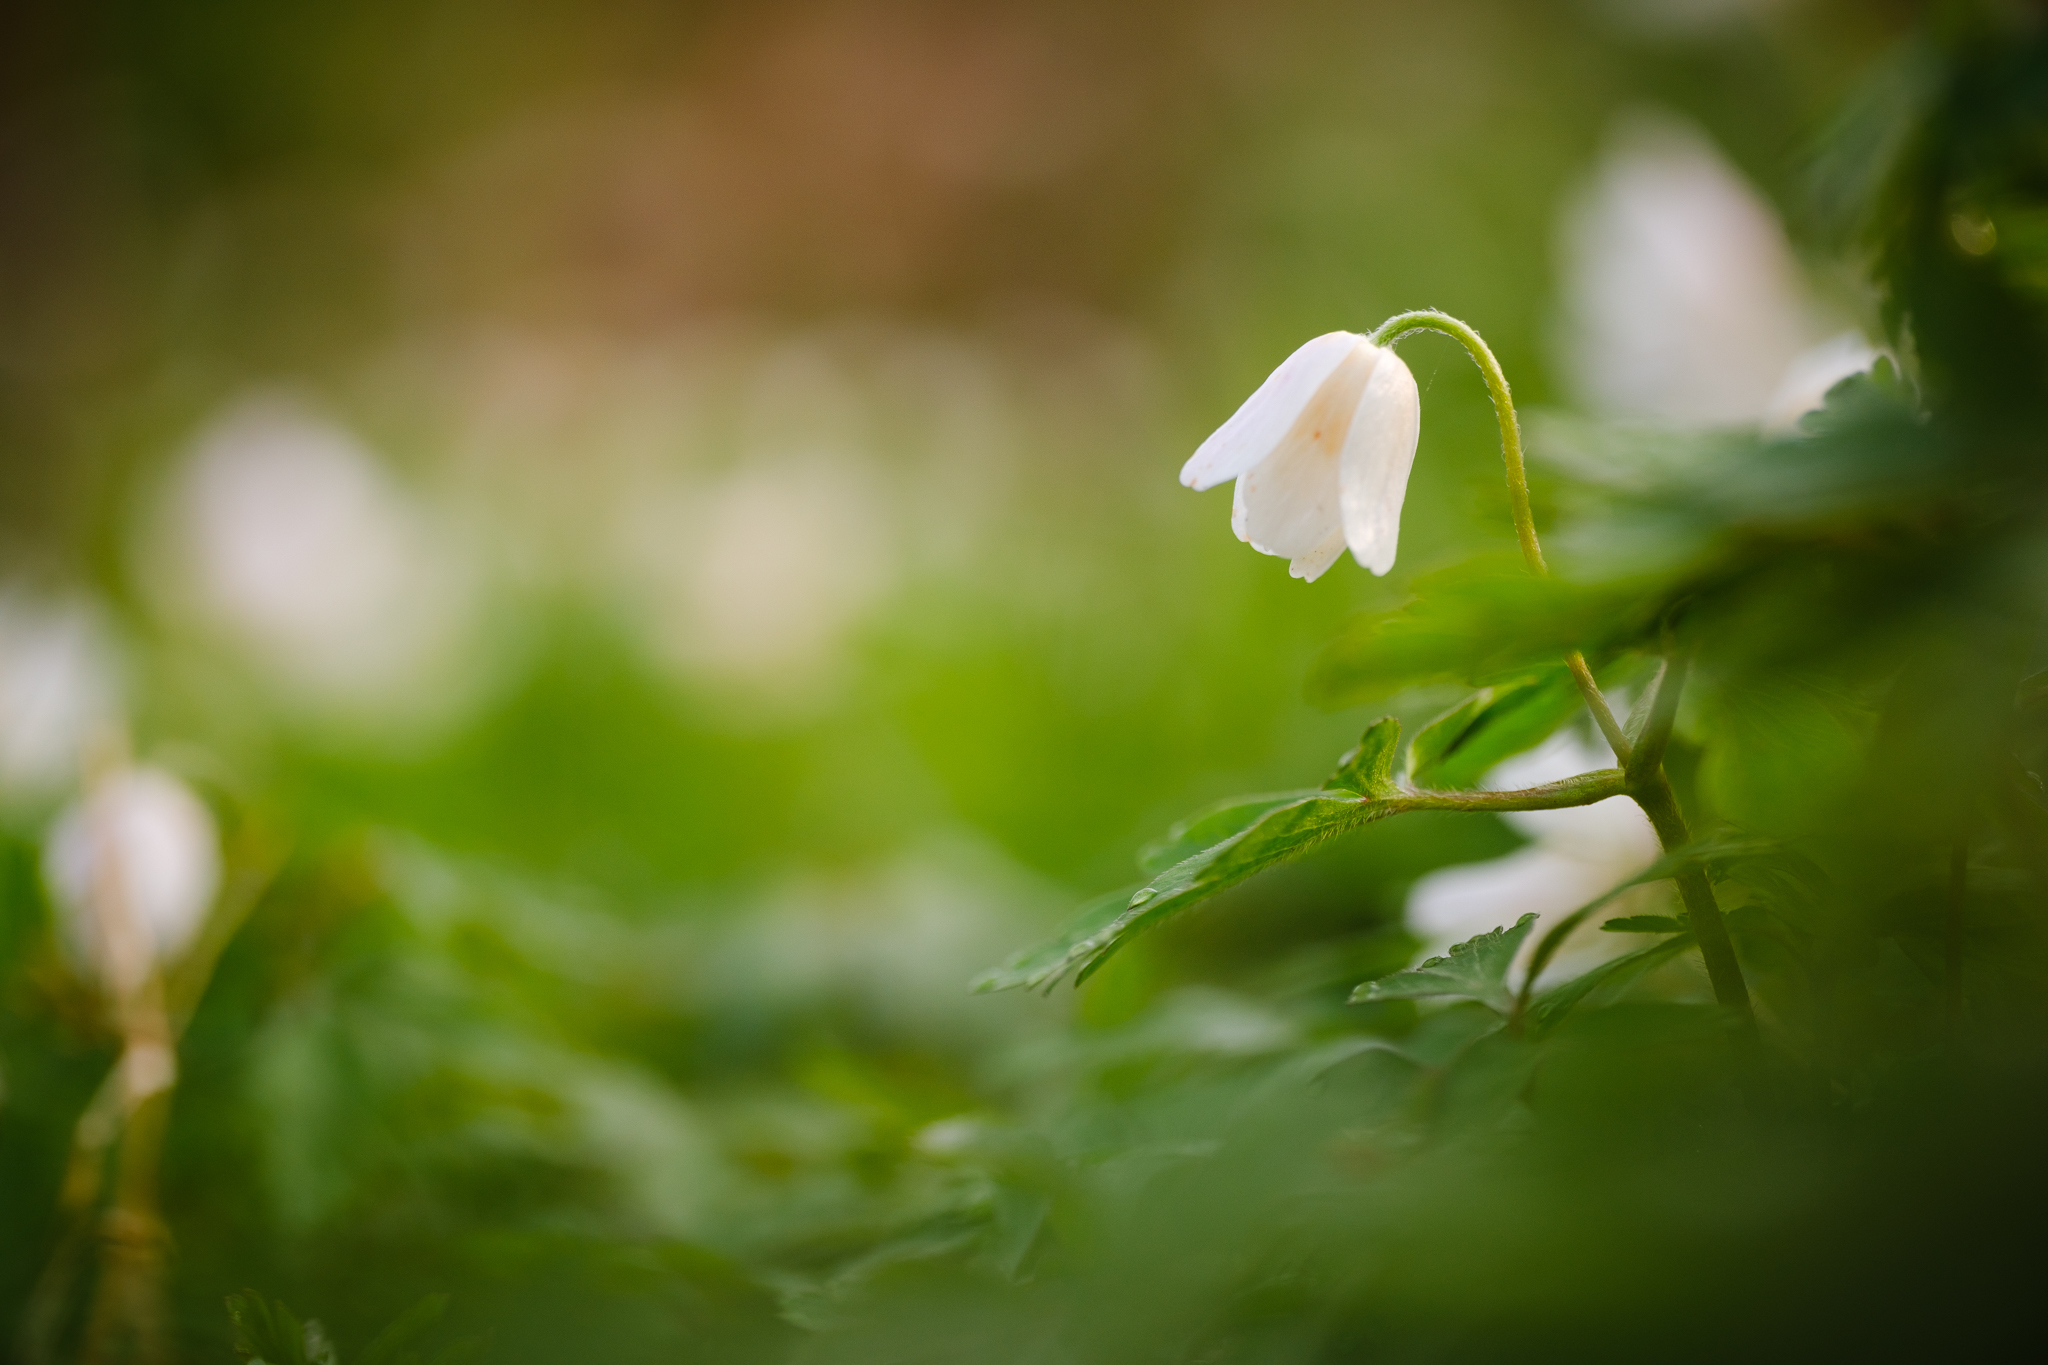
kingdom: Plantae
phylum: Tracheophyta
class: Magnoliopsida
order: Ranunculales
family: Ranunculaceae
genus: Anemone
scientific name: Anemone nemorosa
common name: Wood anemone
